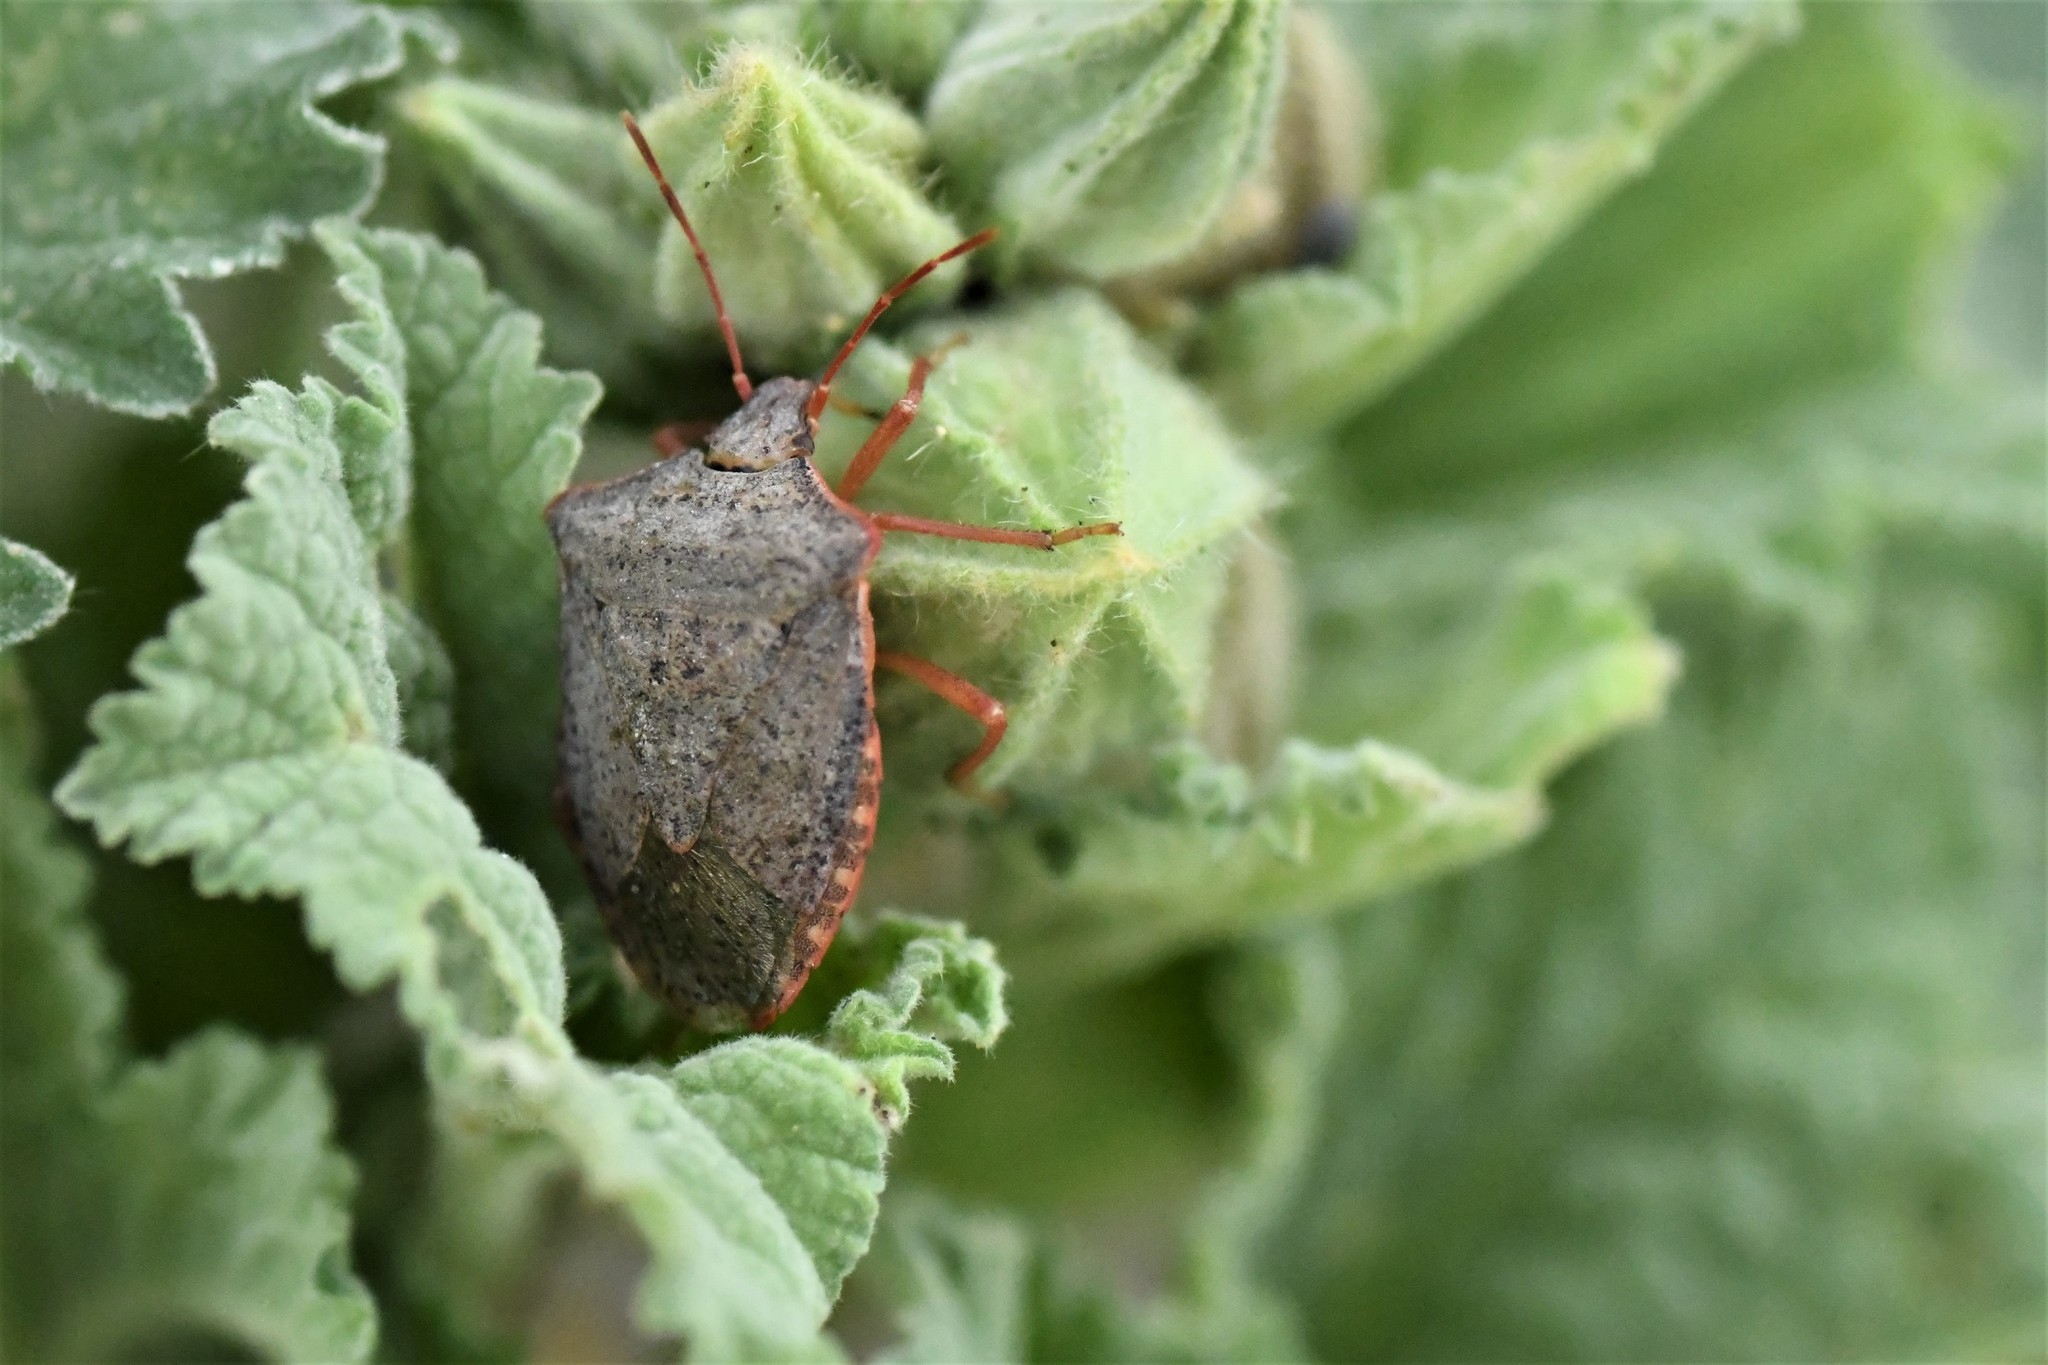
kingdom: Animalia
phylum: Arthropoda
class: Insecta
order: Hemiptera
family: Pentatomidae
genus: Euschistus
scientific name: Euschistus inflatus
